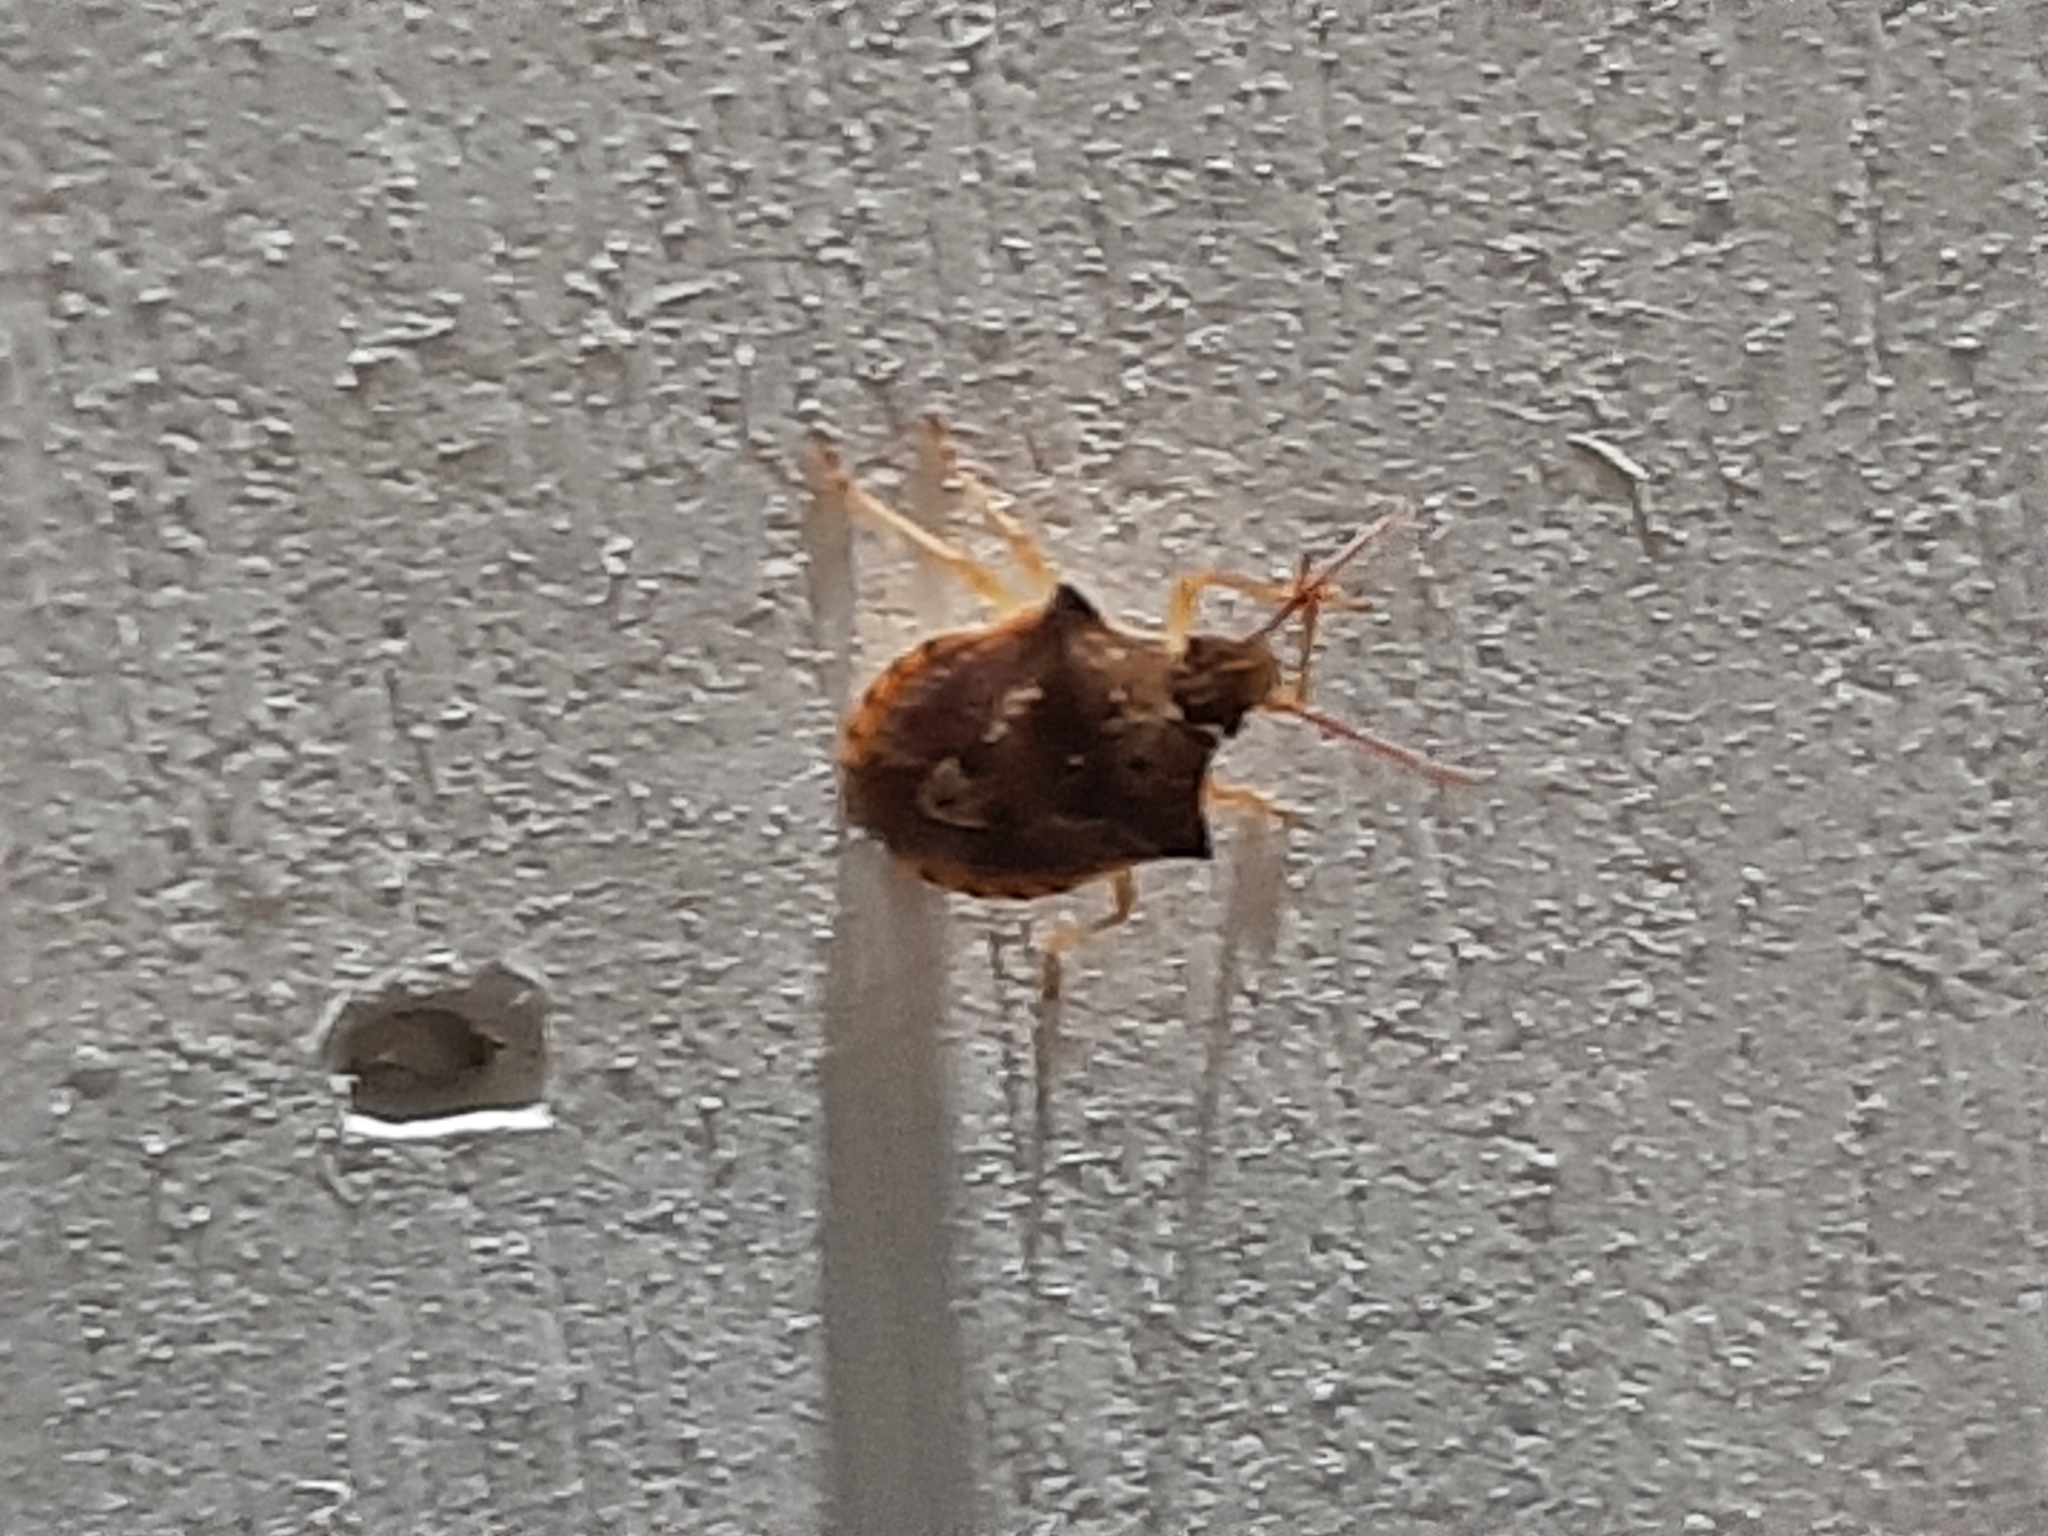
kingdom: Animalia
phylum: Arthropoda
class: Insecta
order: Hemiptera
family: Pentatomidae
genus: Dendrocoris
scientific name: Dendrocoris humeralis
